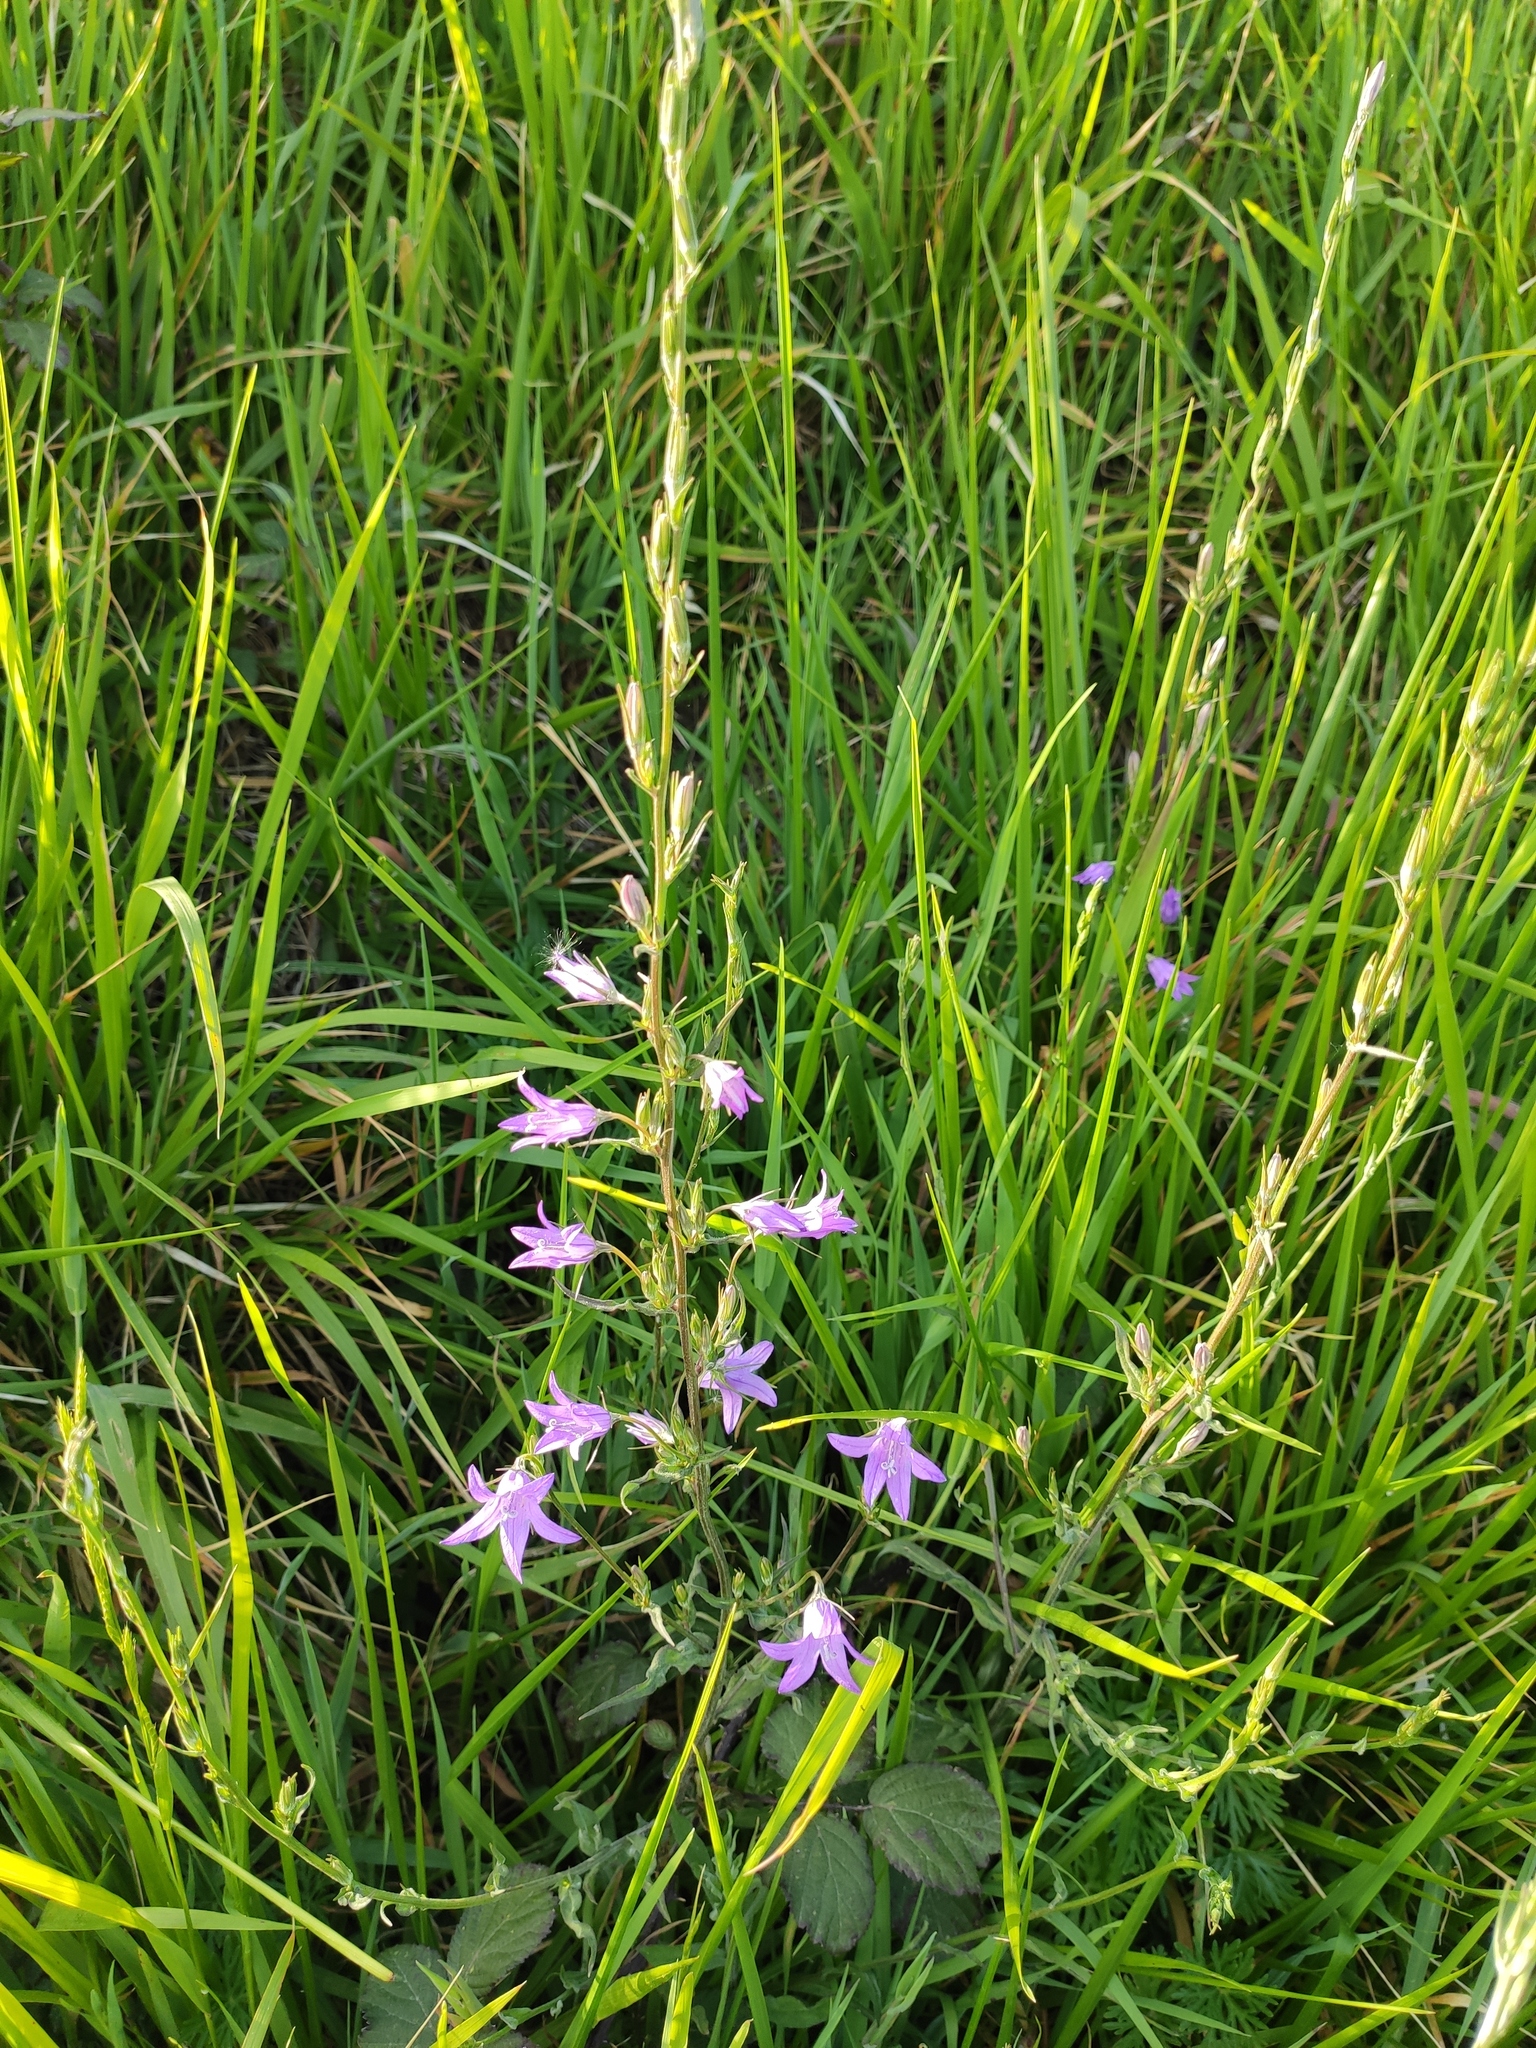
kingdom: Plantae
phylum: Tracheophyta
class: Magnoliopsida
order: Asterales
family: Campanulaceae
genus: Campanula
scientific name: Campanula rapunculus
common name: Rampion bellflower
